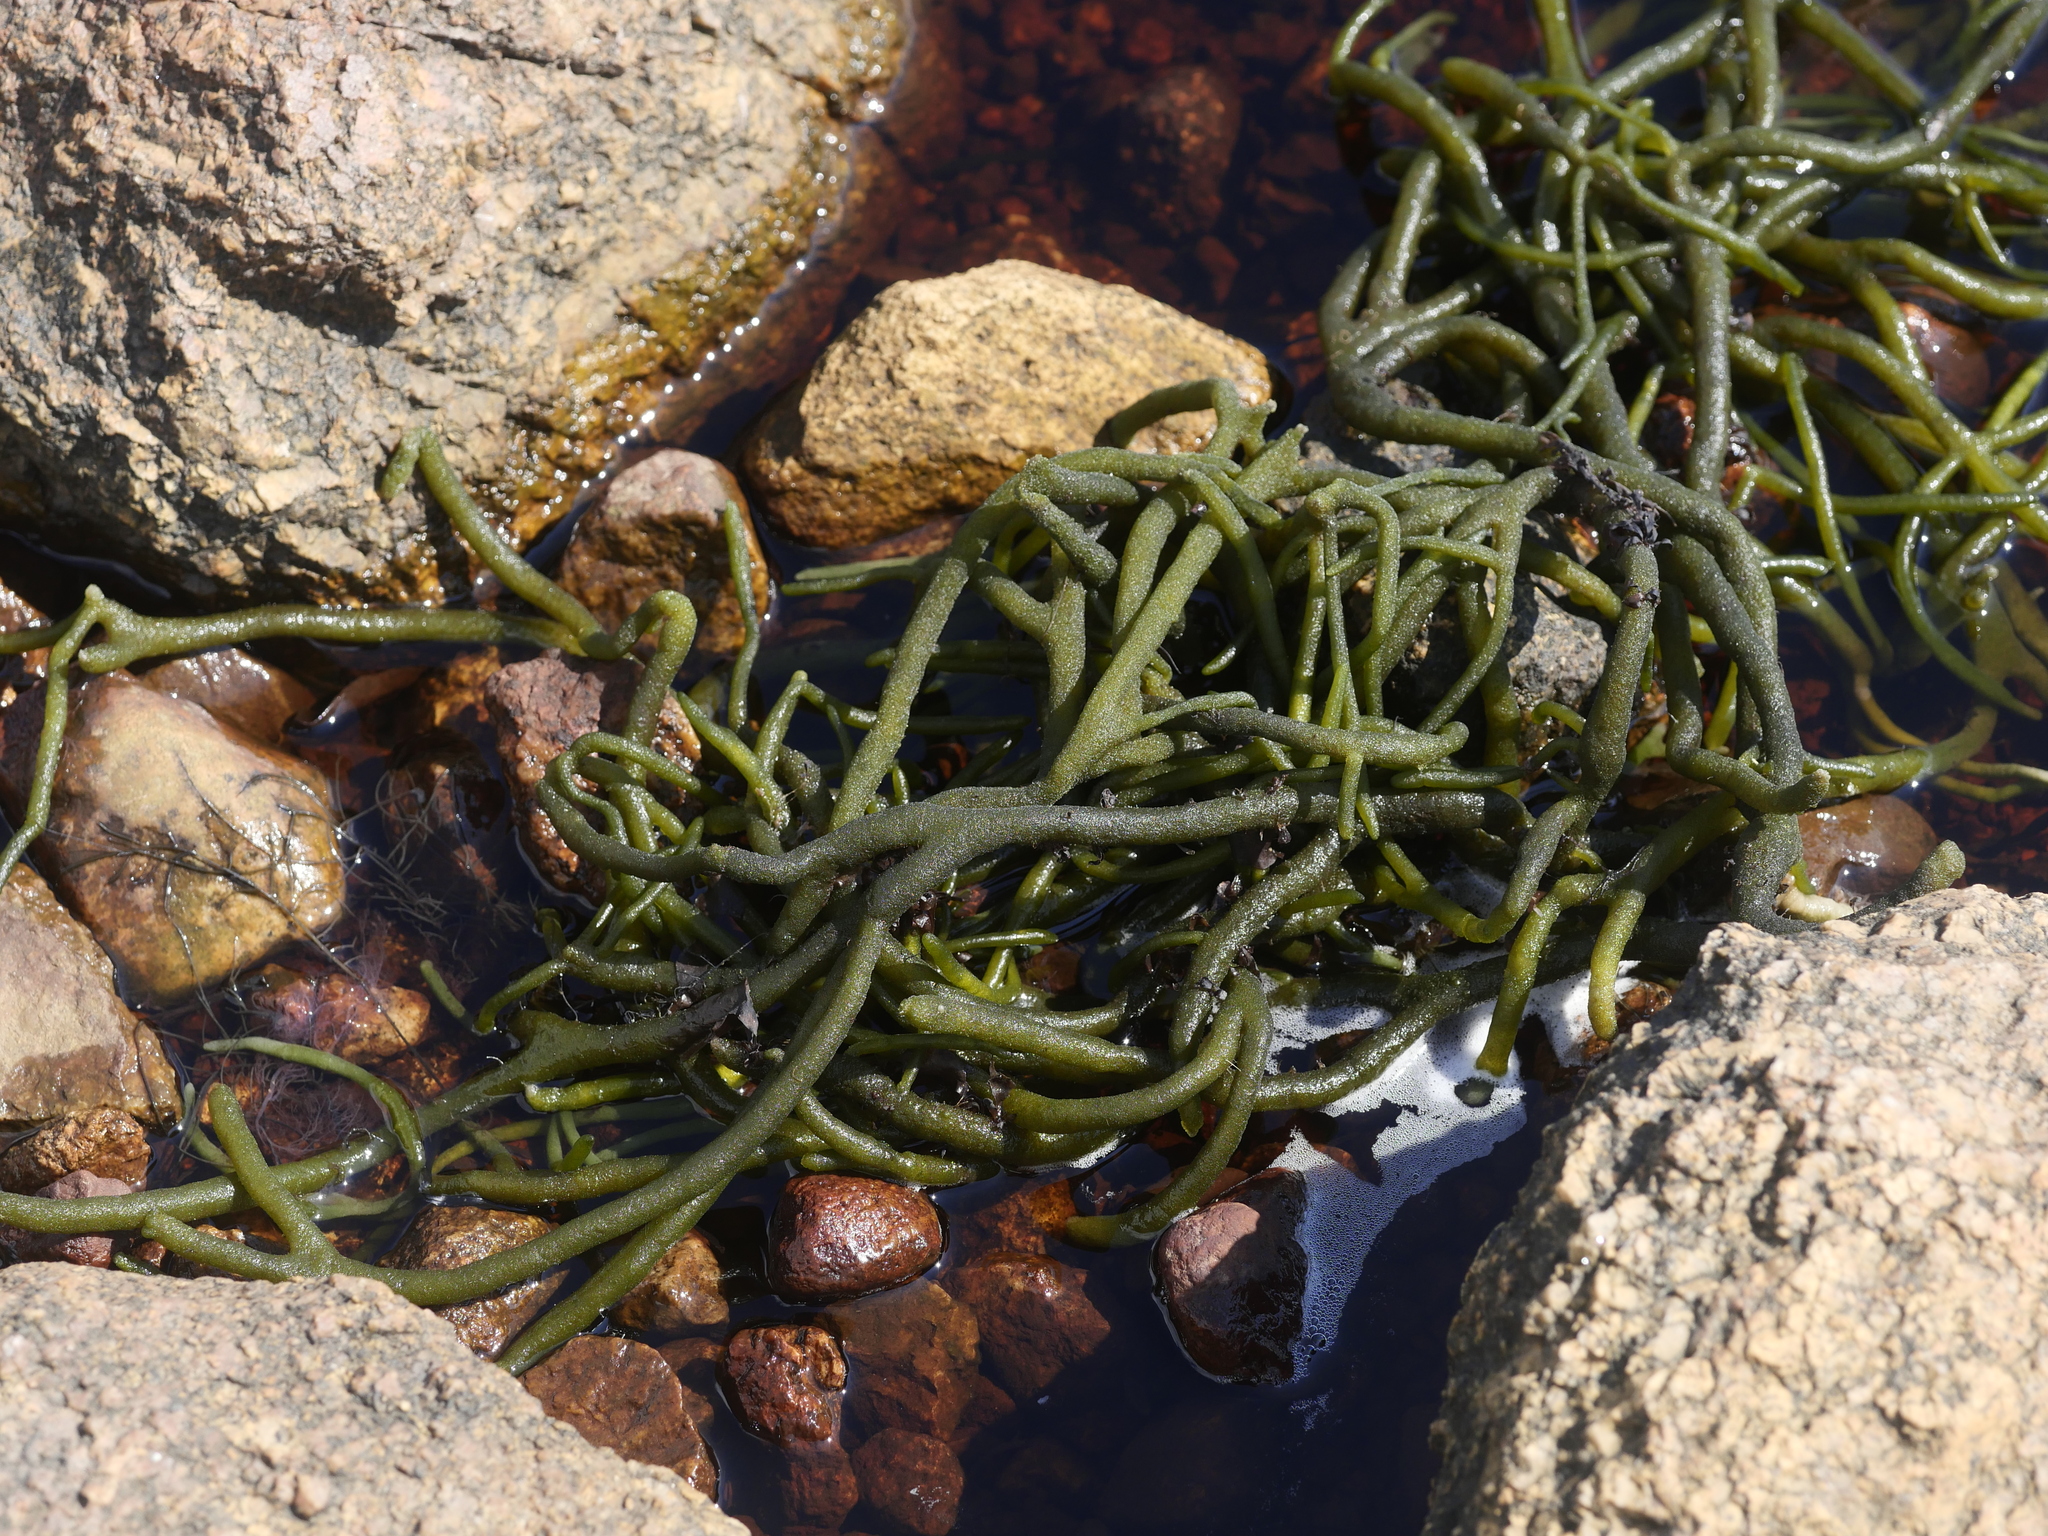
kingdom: Plantae
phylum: Chlorophyta
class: Ulvophyceae
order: Bryopsidales
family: Codiaceae
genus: Codium
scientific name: Codium fragile
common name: Dead man's fingers
